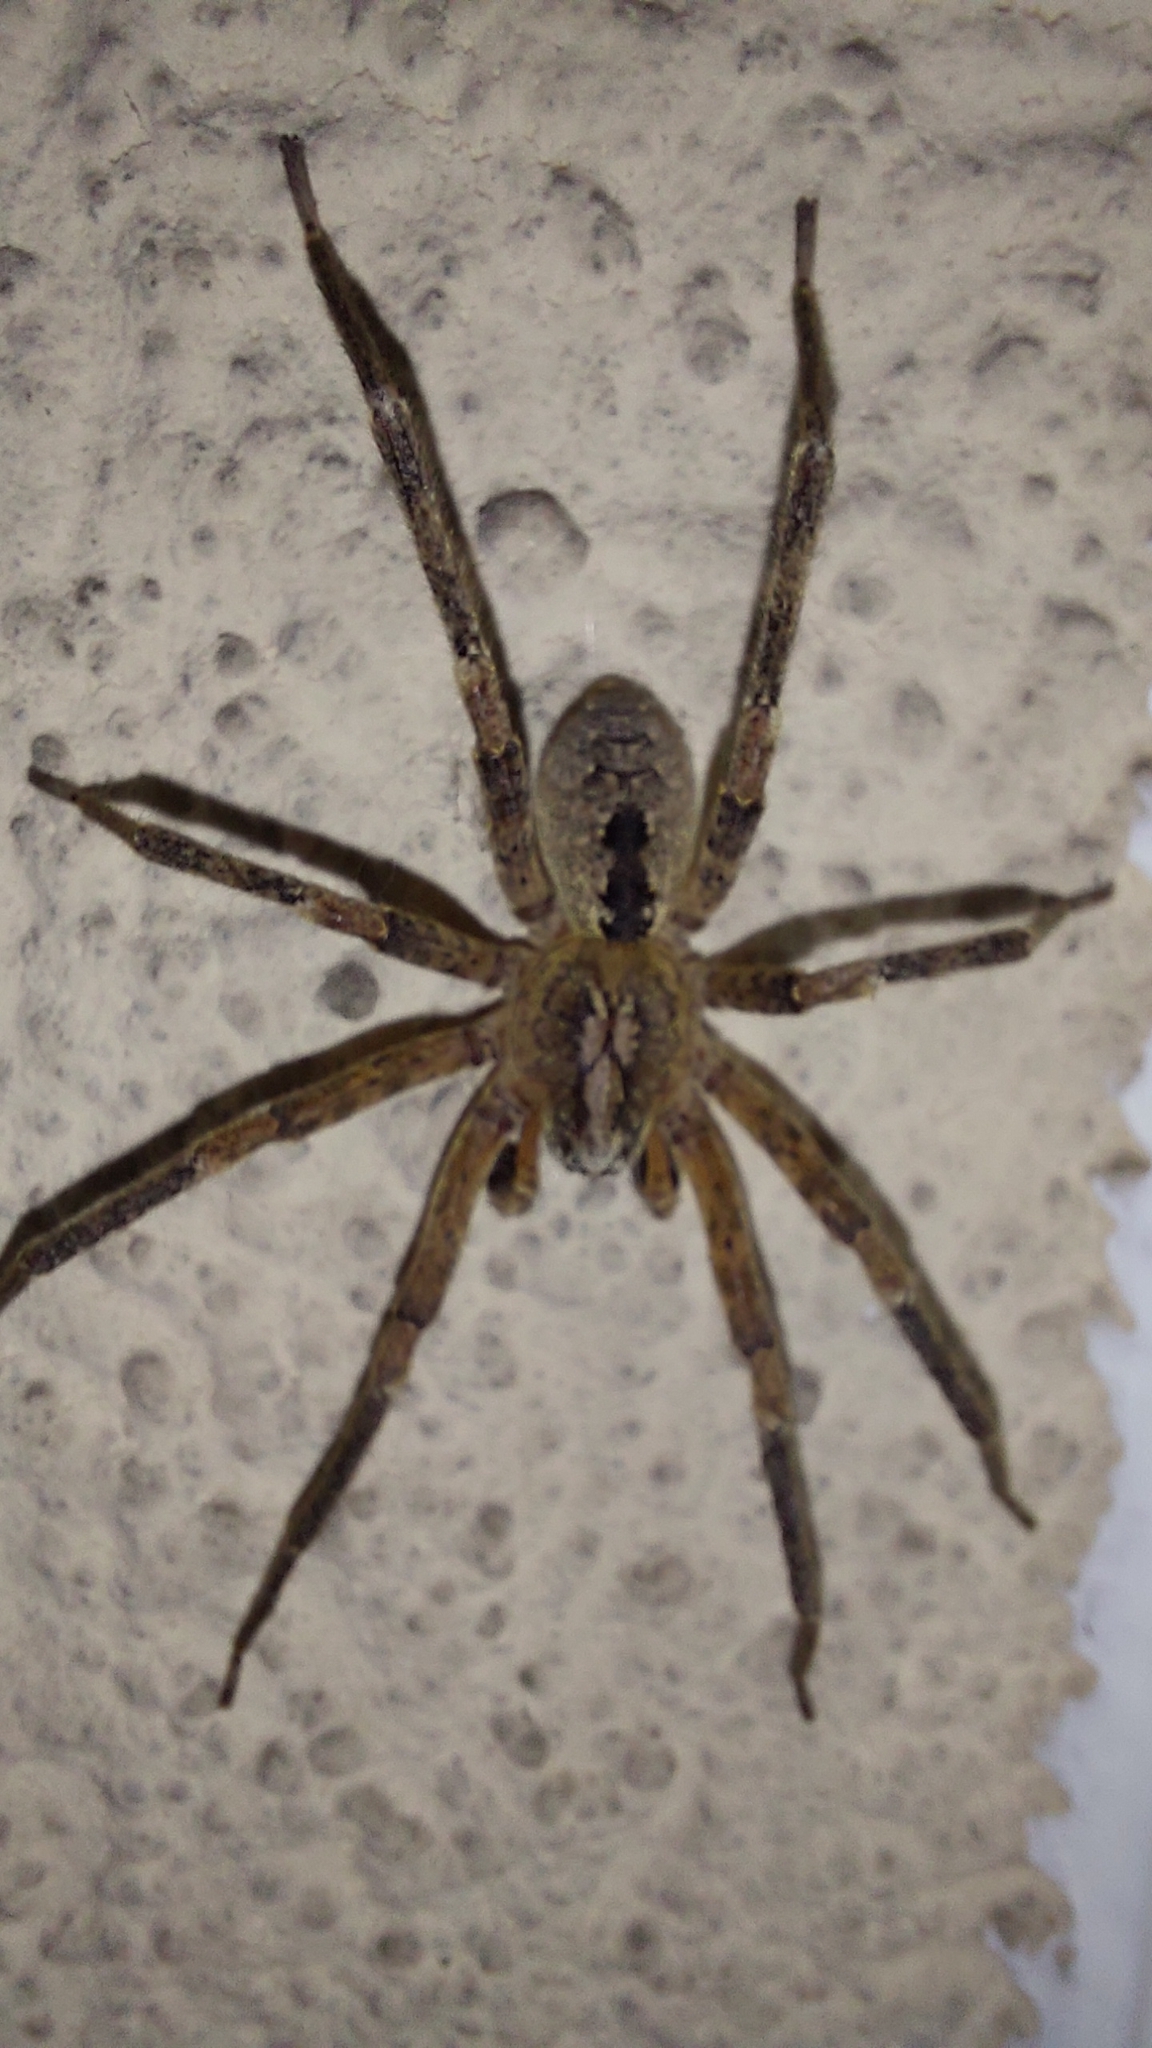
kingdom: Animalia
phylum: Arthropoda
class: Arachnida
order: Araneae
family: Zoropsidae
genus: Zoropsis
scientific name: Zoropsis spinimana
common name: Zoropsid spider
